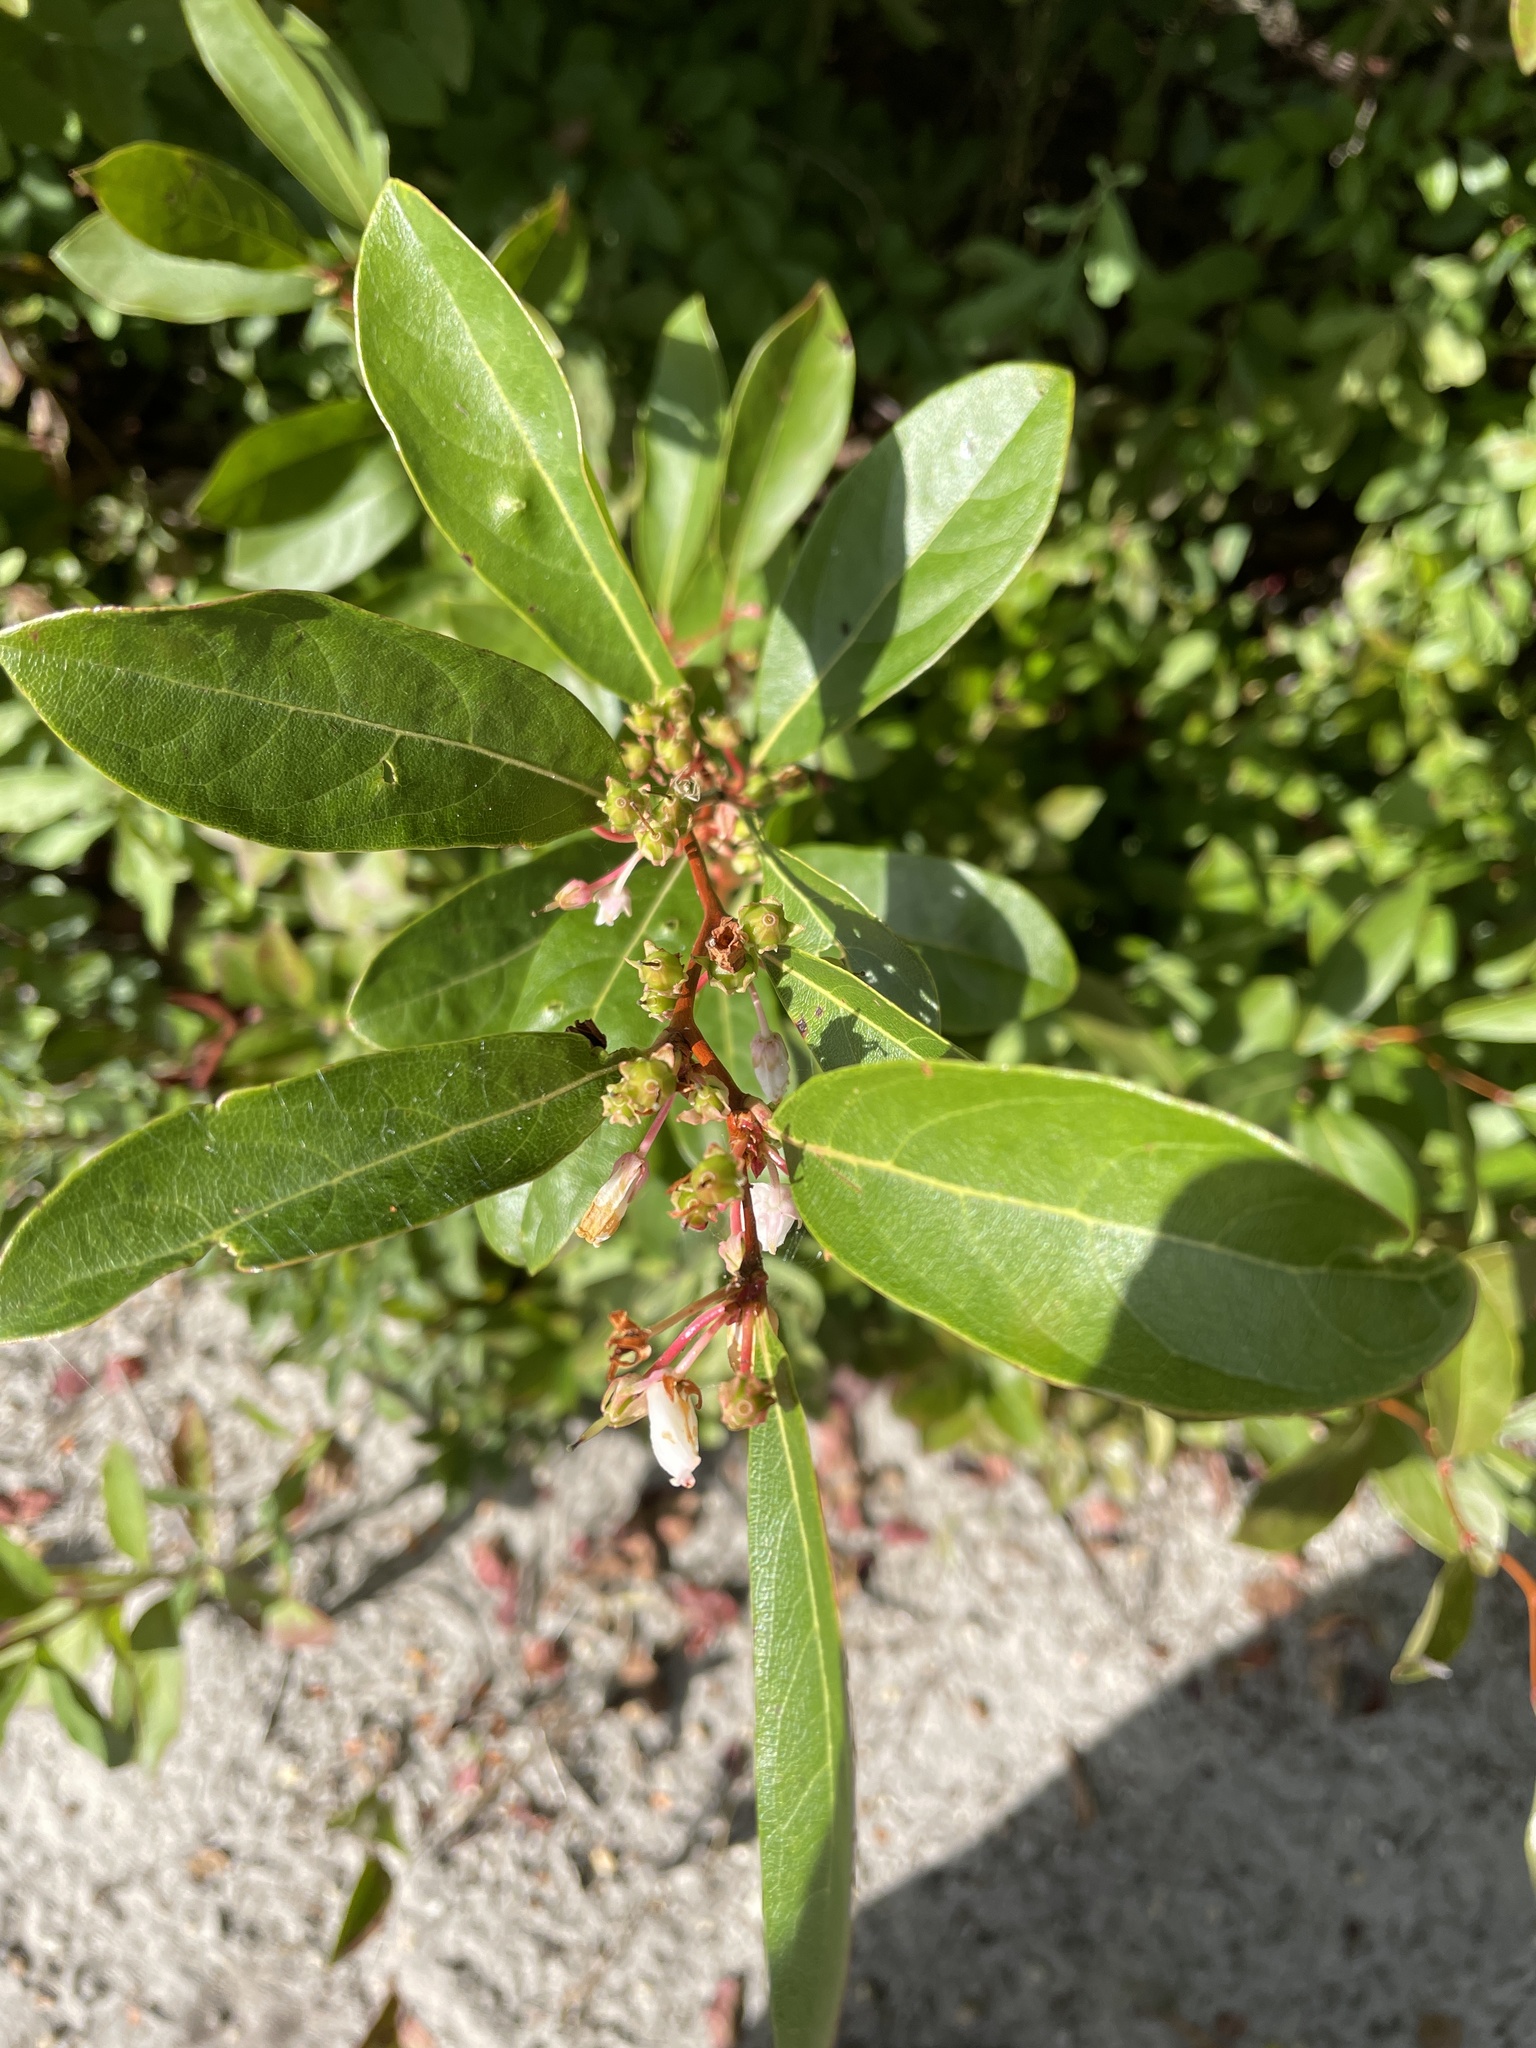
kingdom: Plantae
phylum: Tracheophyta
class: Magnoliopsida
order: Ericales
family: Ericaceae
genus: Lyonia
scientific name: Lyonia mariana
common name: Staggerbush
